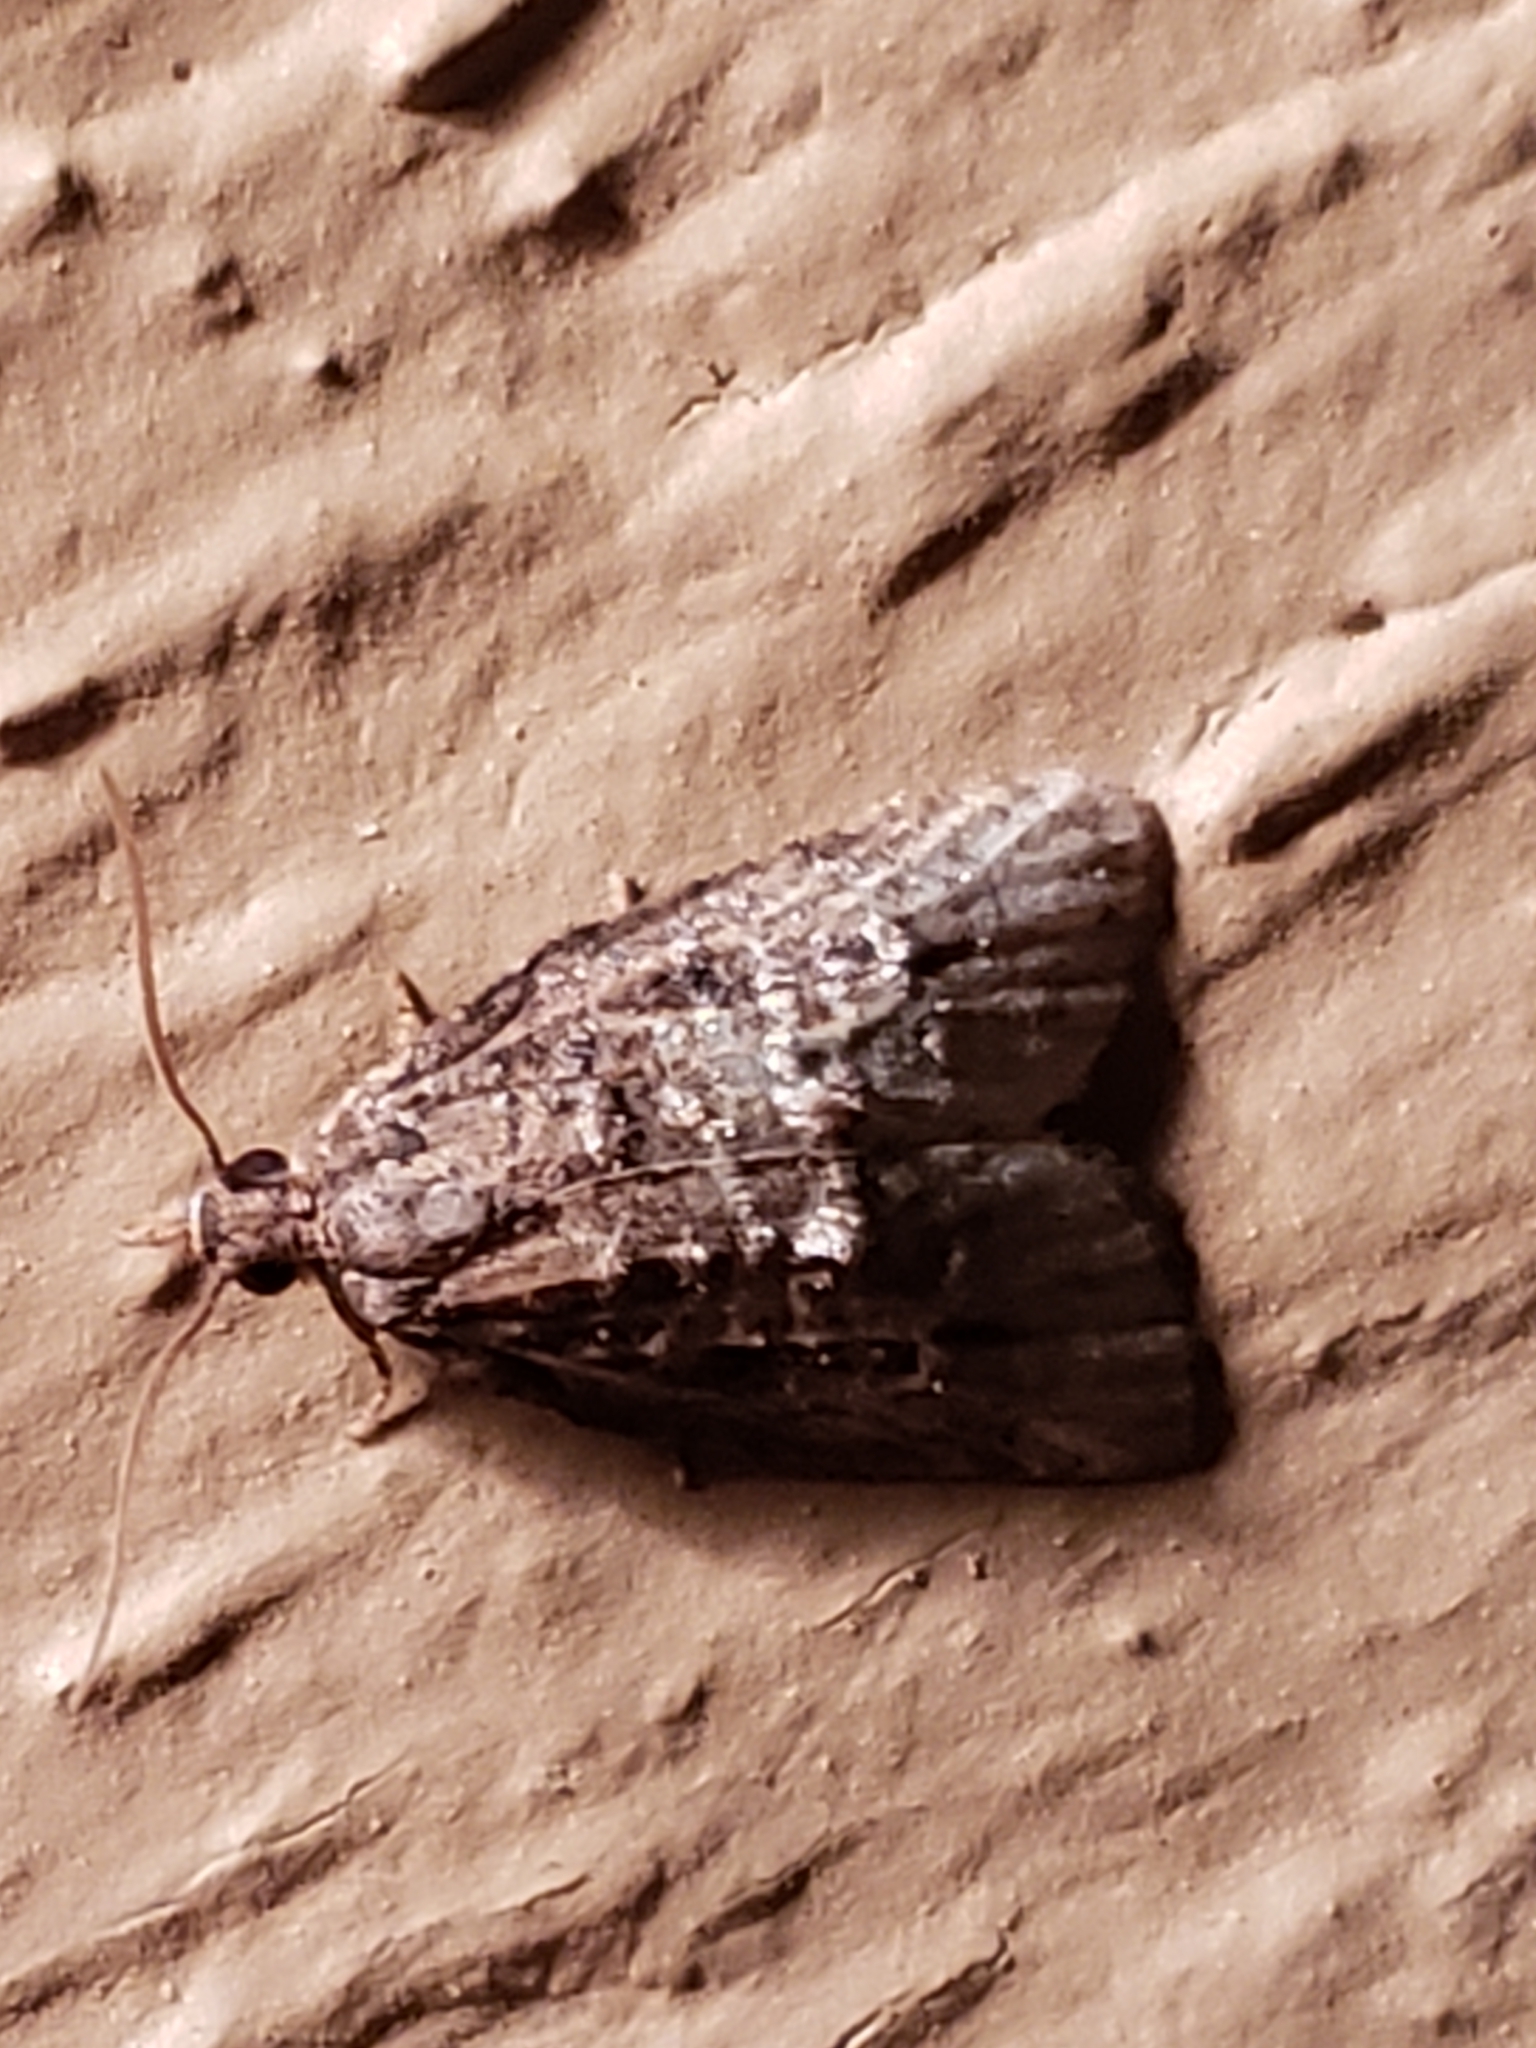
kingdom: Animalia
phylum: Arthropoda
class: Insecta
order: Lepidoptera
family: Tortricidae
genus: Platynota
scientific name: Platynota idaeusalis
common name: Tufted apple bud moth
